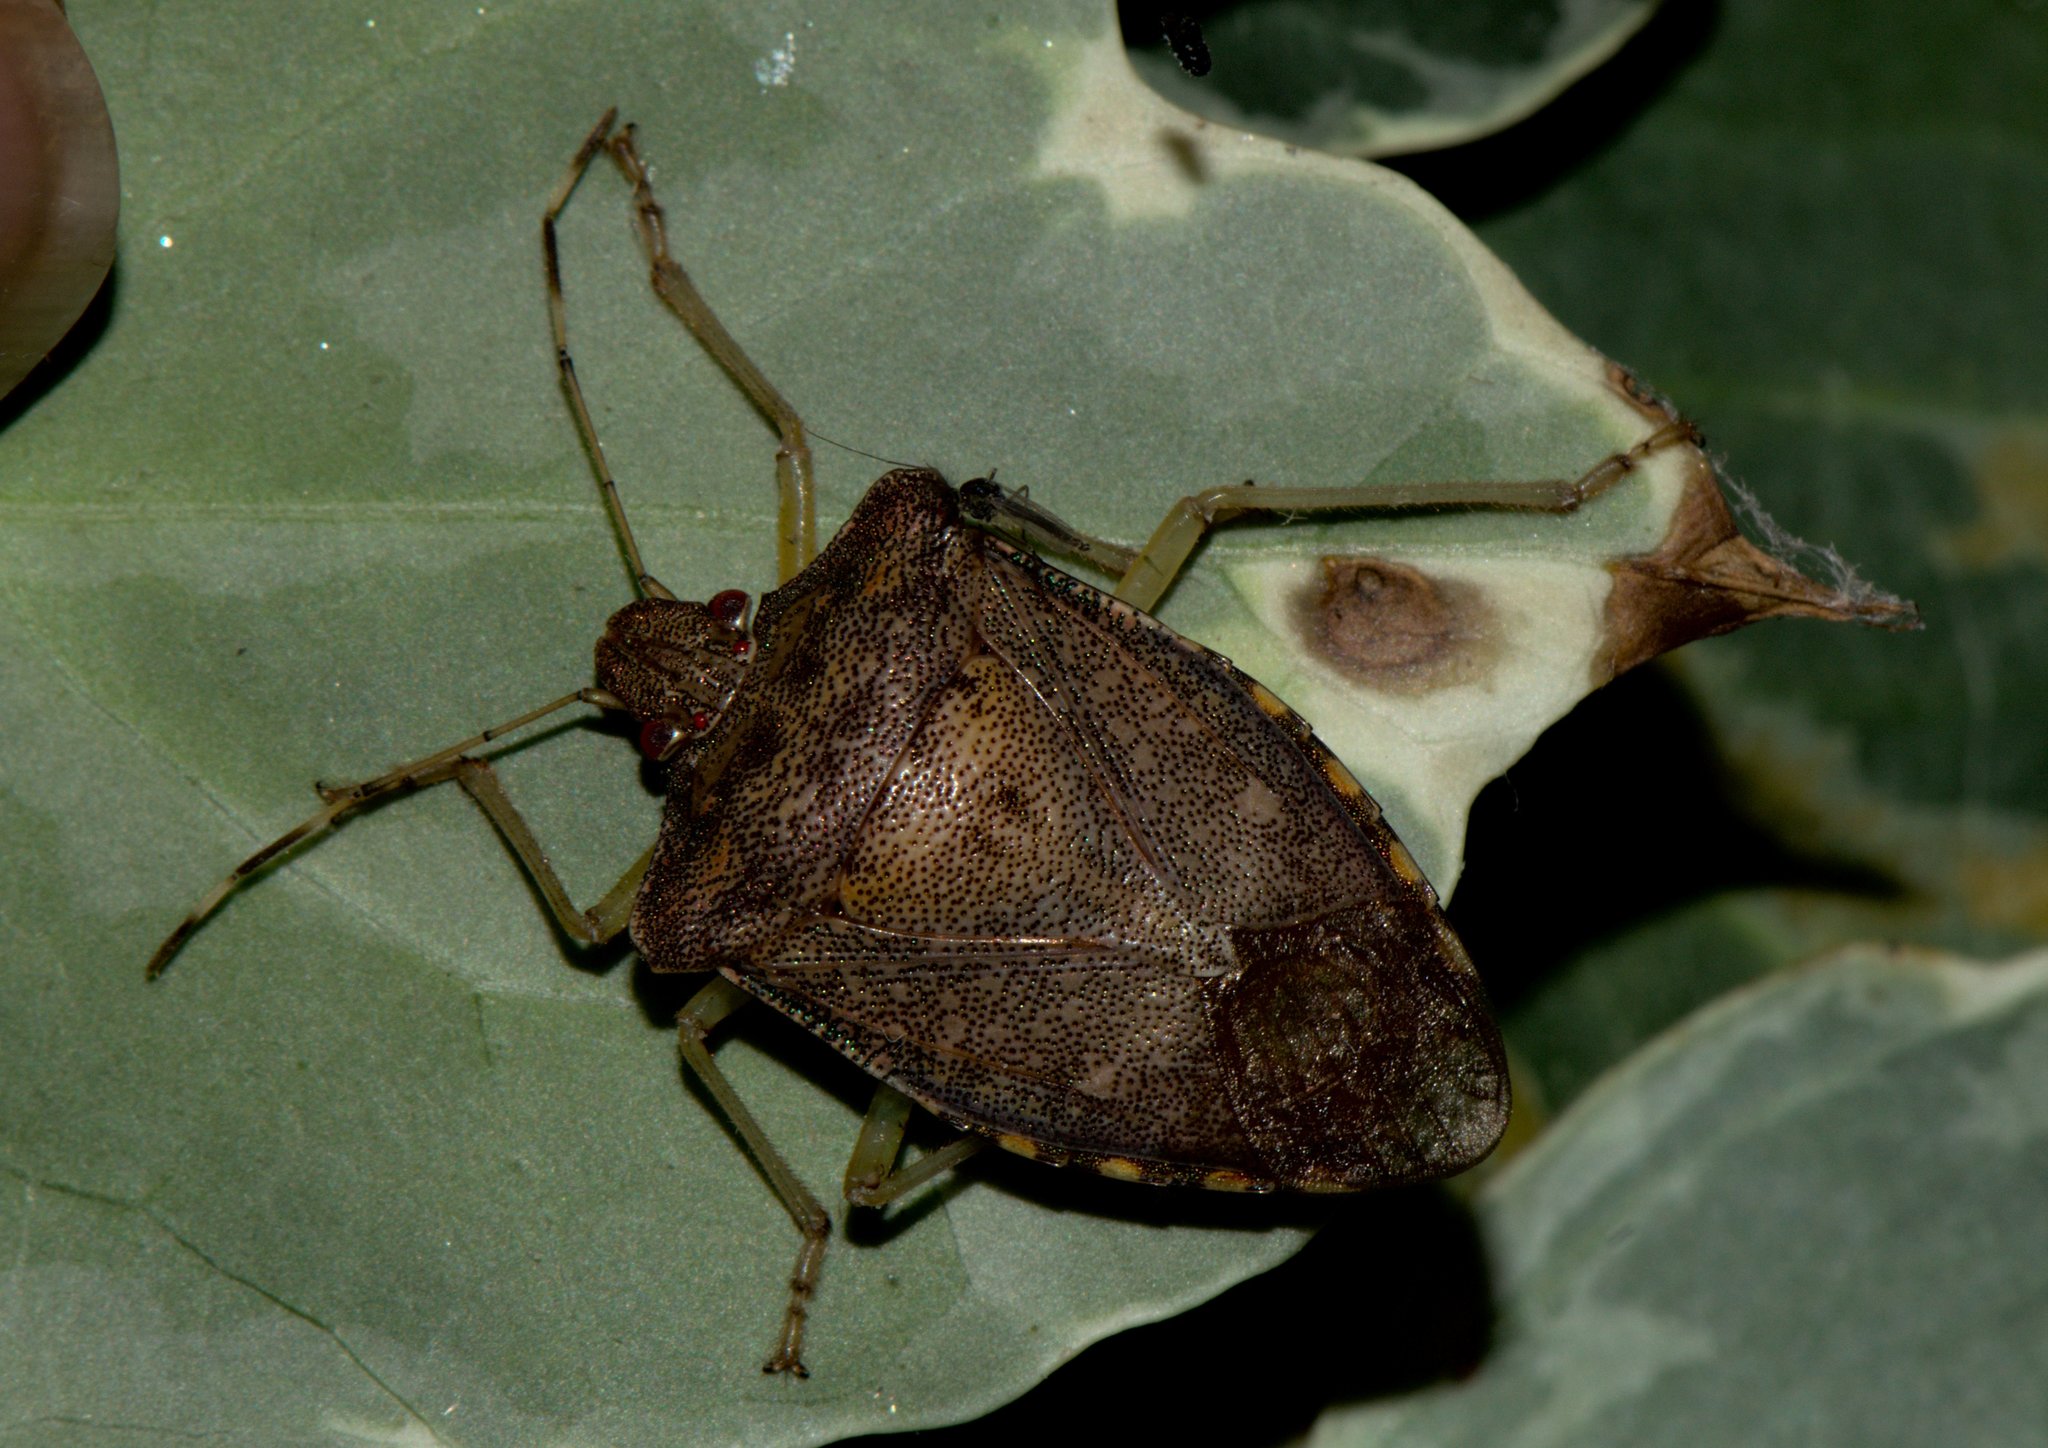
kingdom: Animalia
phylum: Arthropoda
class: Insecta
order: Hemiptera
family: Pentatomidae
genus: Pentatoma
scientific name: Pentatoma
